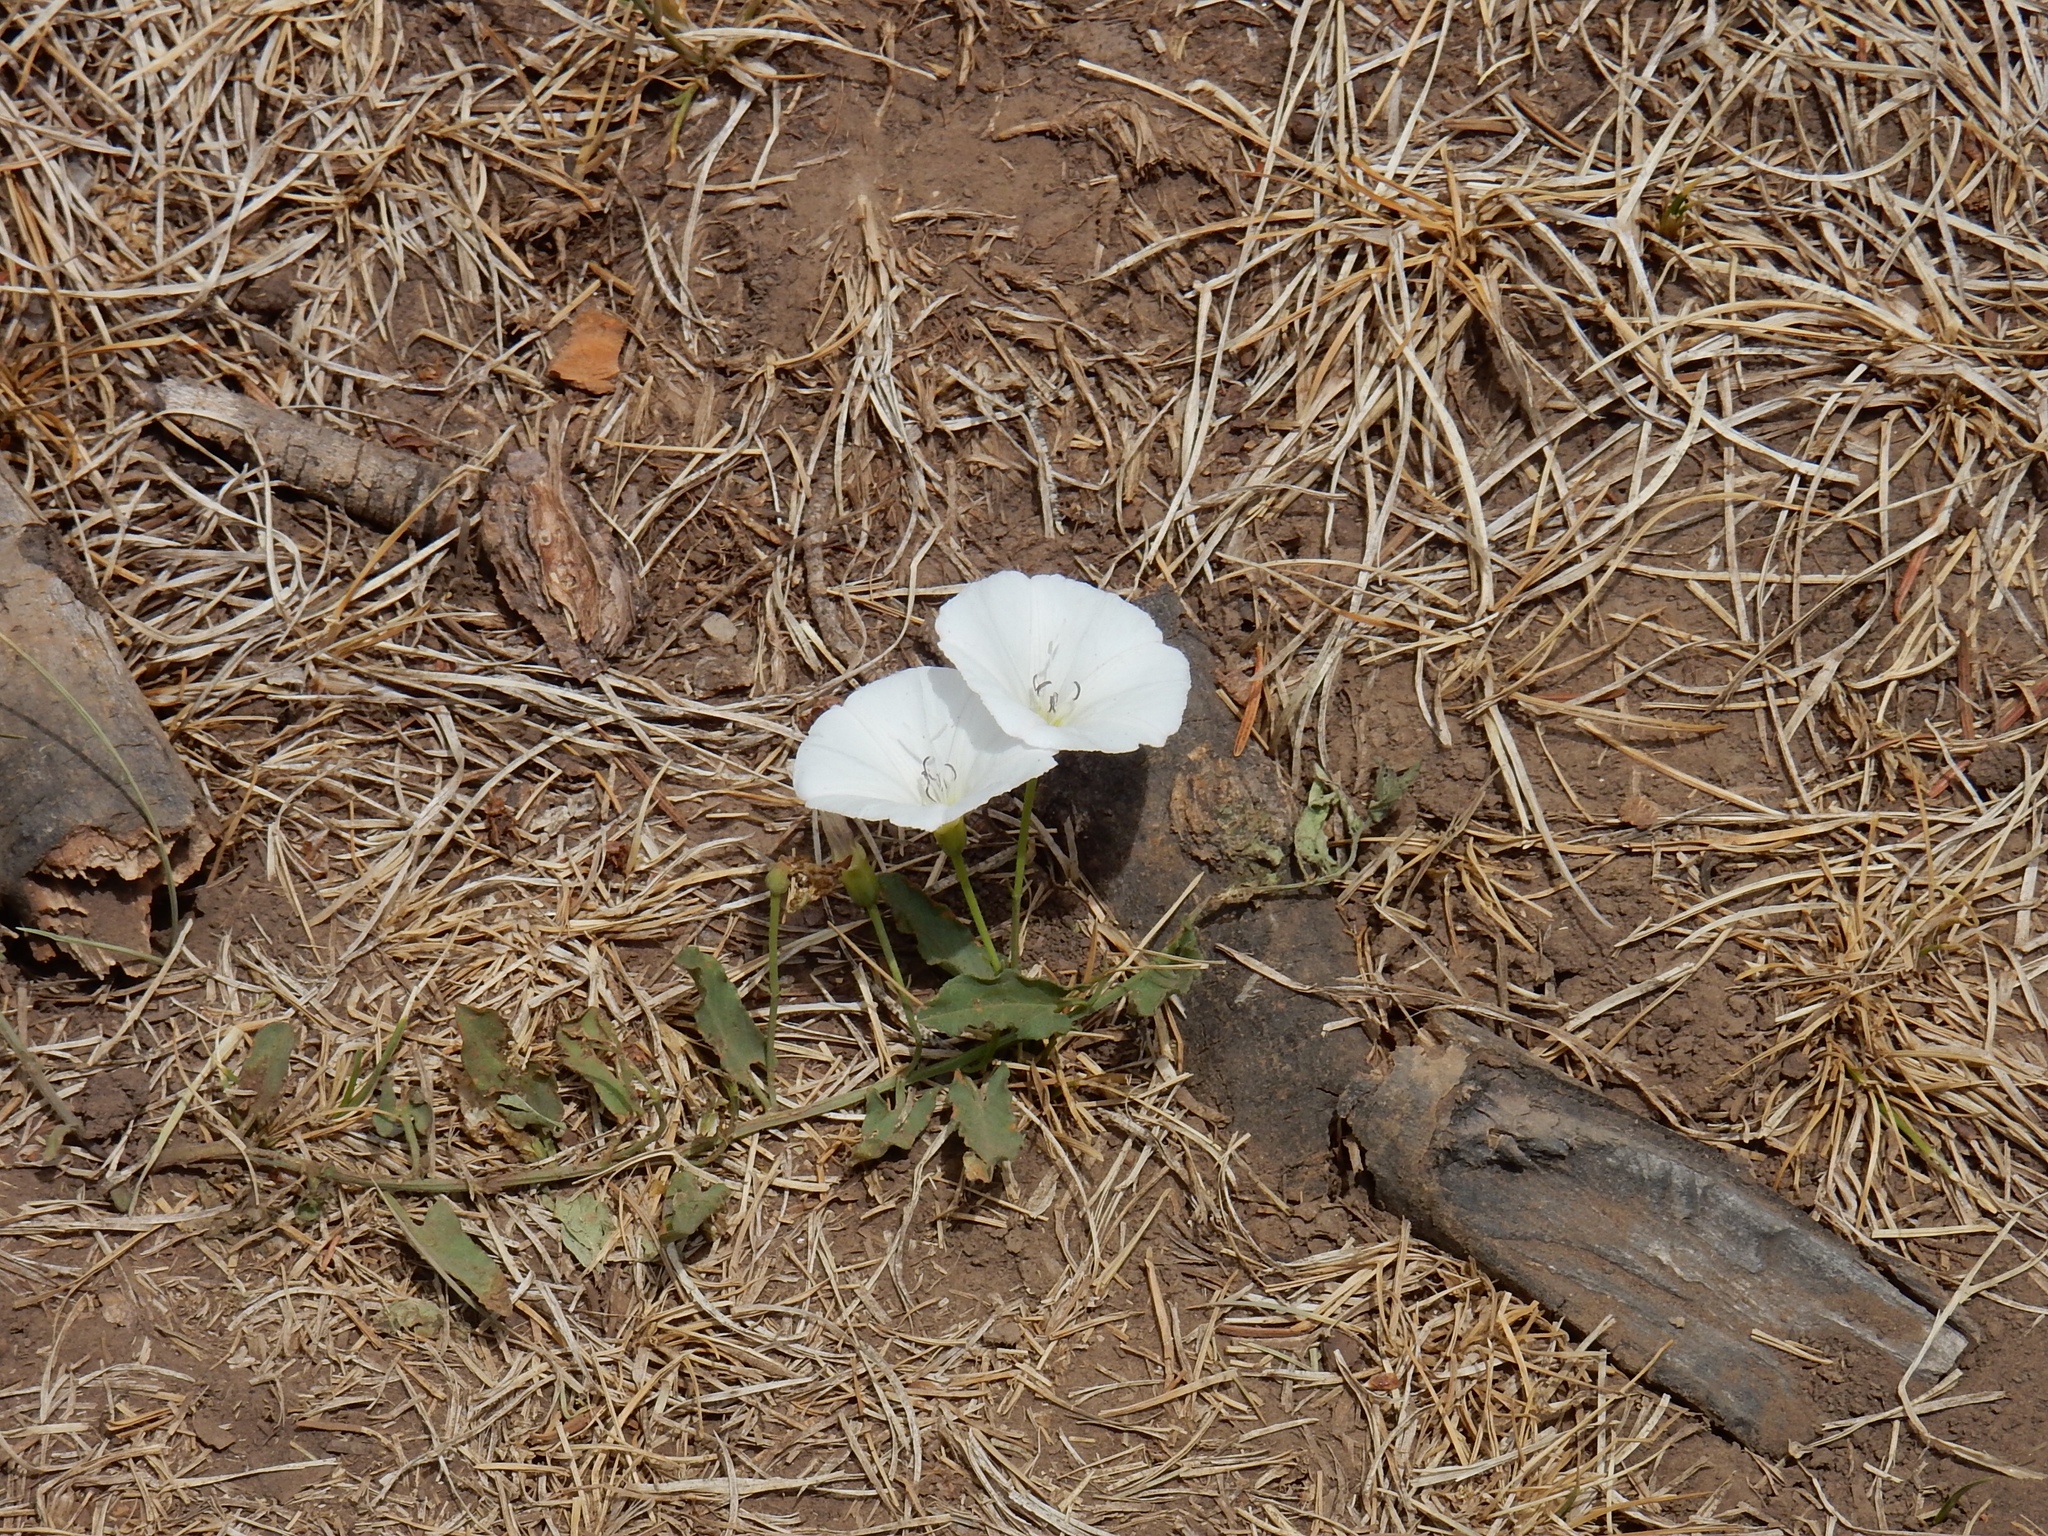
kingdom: Plantae
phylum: Tracheophyta
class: Magnoliopsida
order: Solanales
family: Convolvulaceae
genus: Convolvulus
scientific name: Convolvulus arvensis
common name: Field bindweed
